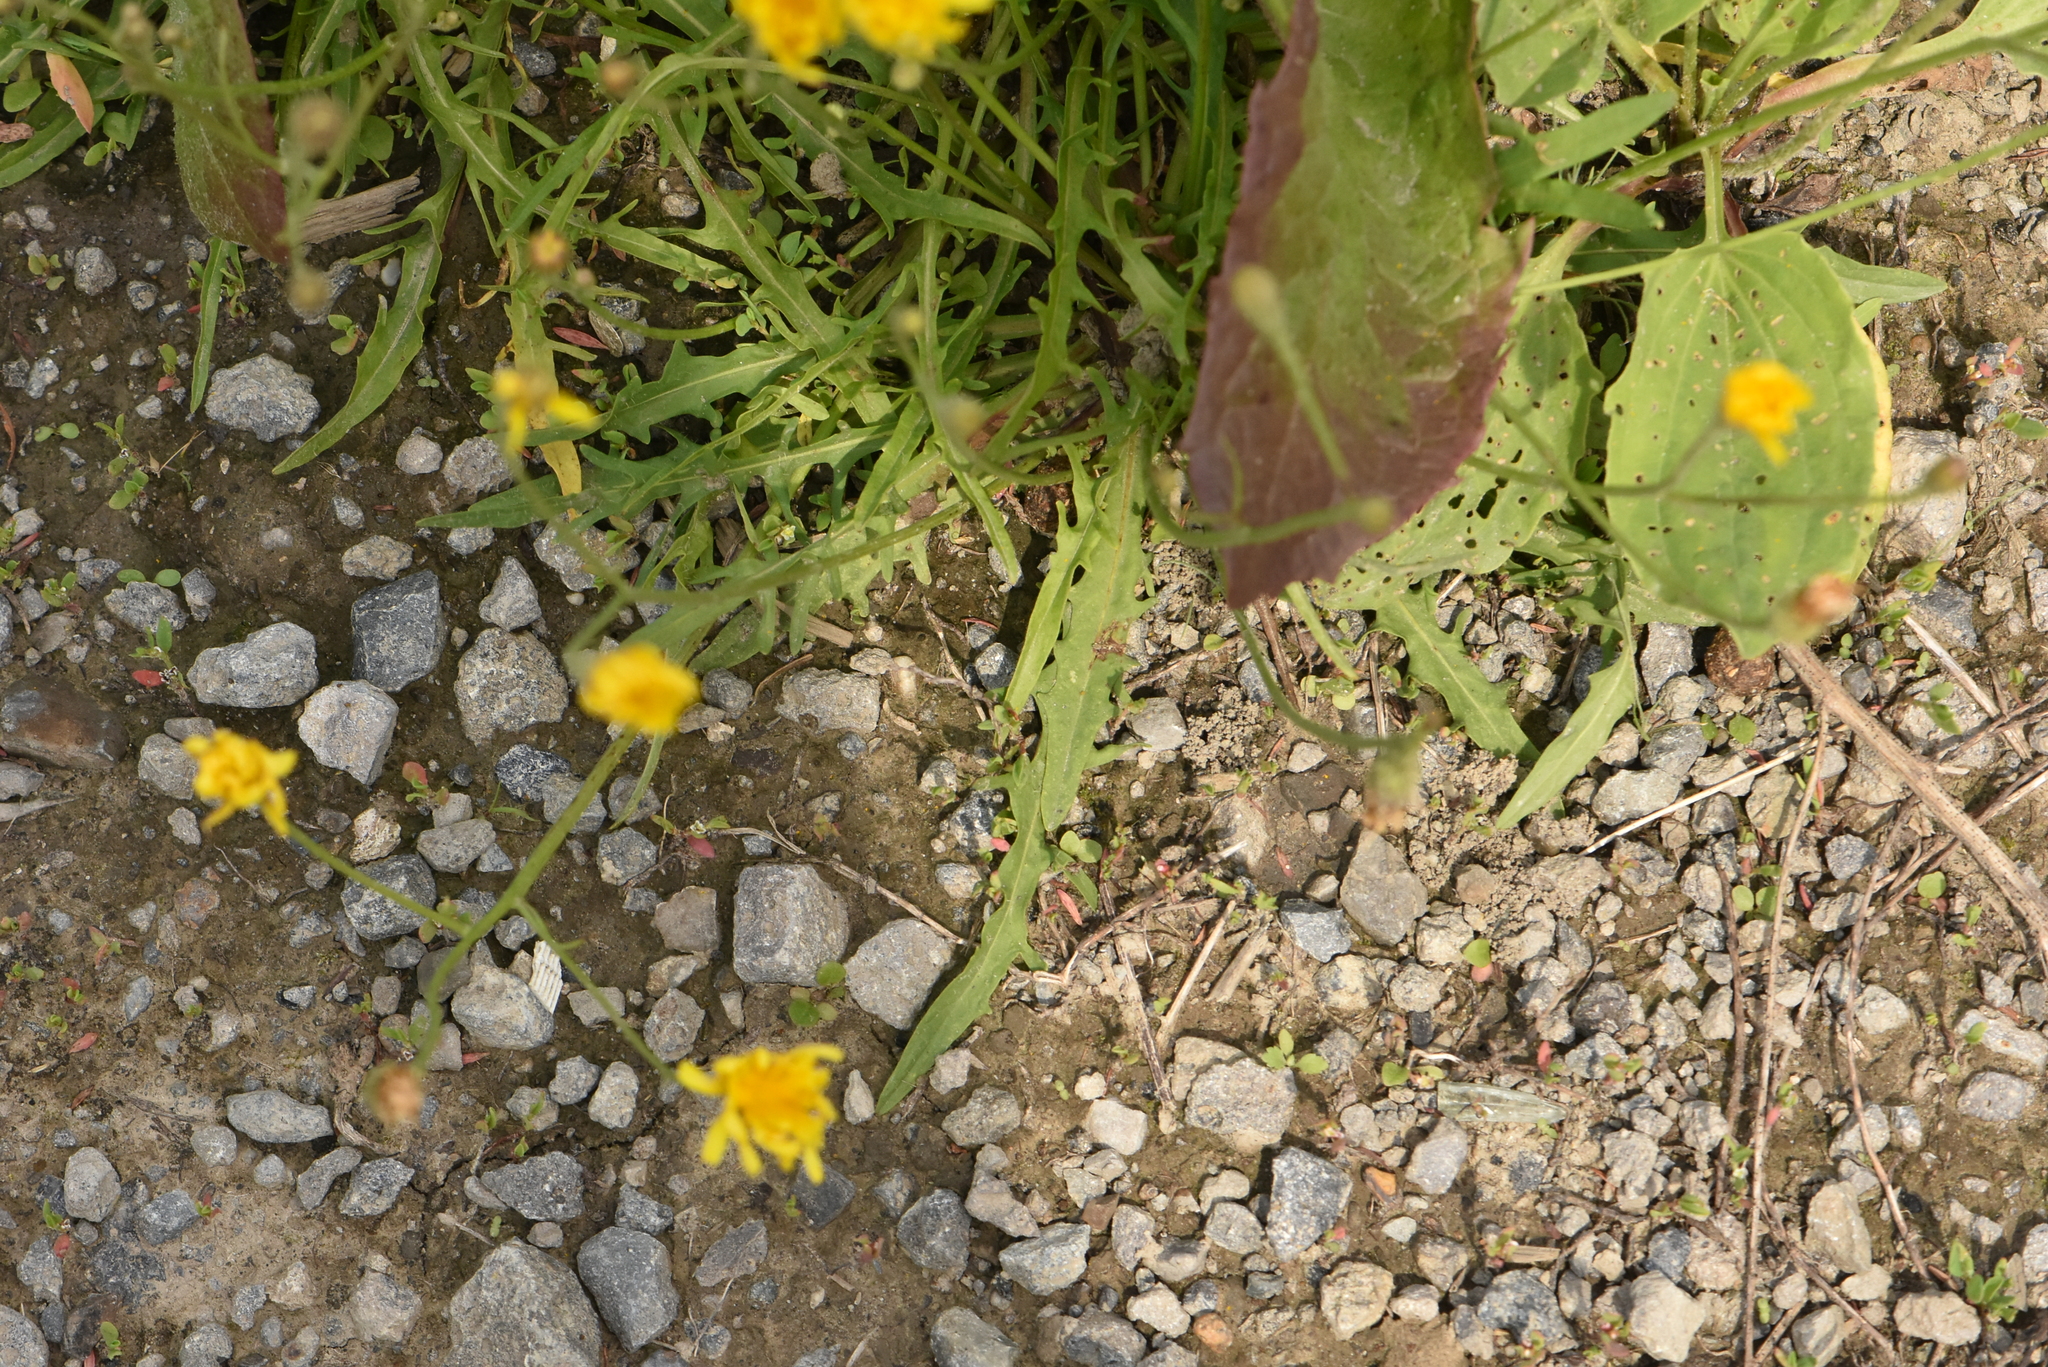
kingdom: Plantae
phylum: Tracheophyta
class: Magnoliopsida
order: Asterales
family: Asteraceae
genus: Scorzoneroides
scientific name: Scorzoneroides autumnalis
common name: Autumn hawkbit
